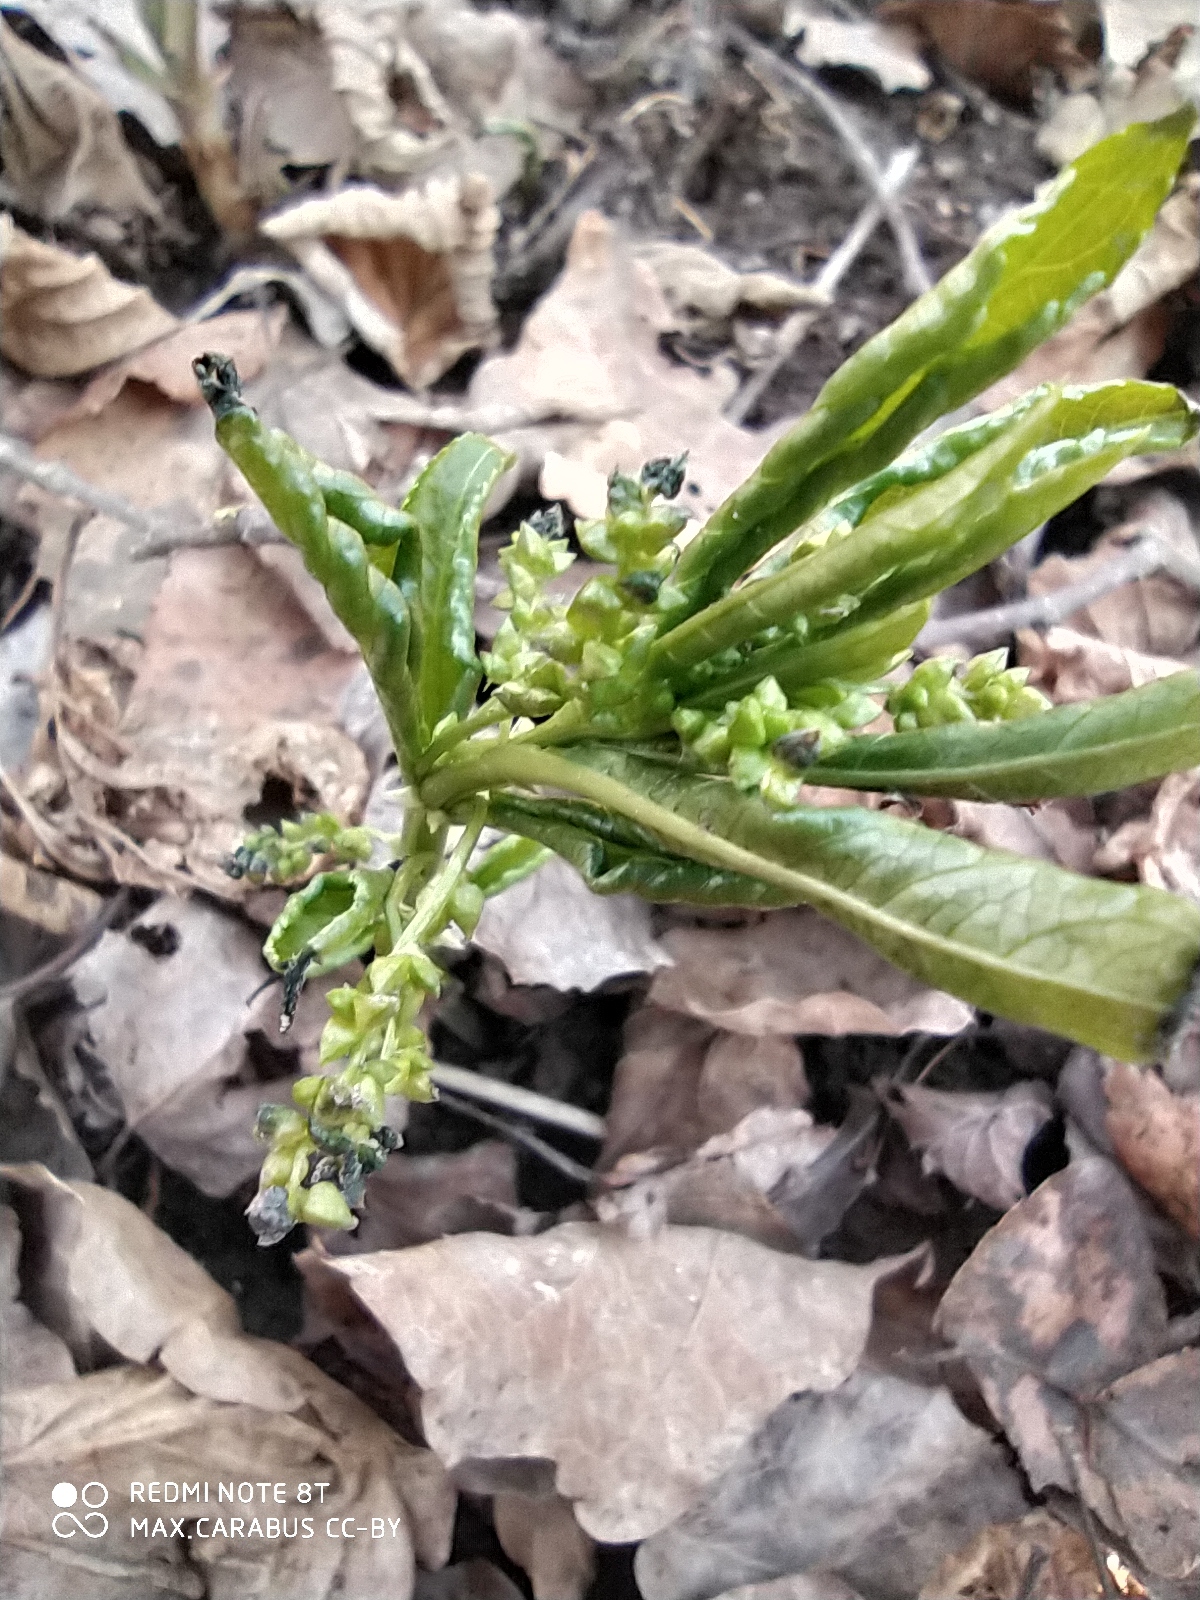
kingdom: Plantae
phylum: Tracheophyta
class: Magnoliopsida
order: Malpighiales
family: Euphorbiaceae
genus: Mercurialis
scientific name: Mercurialis perennis
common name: Dog mercury
